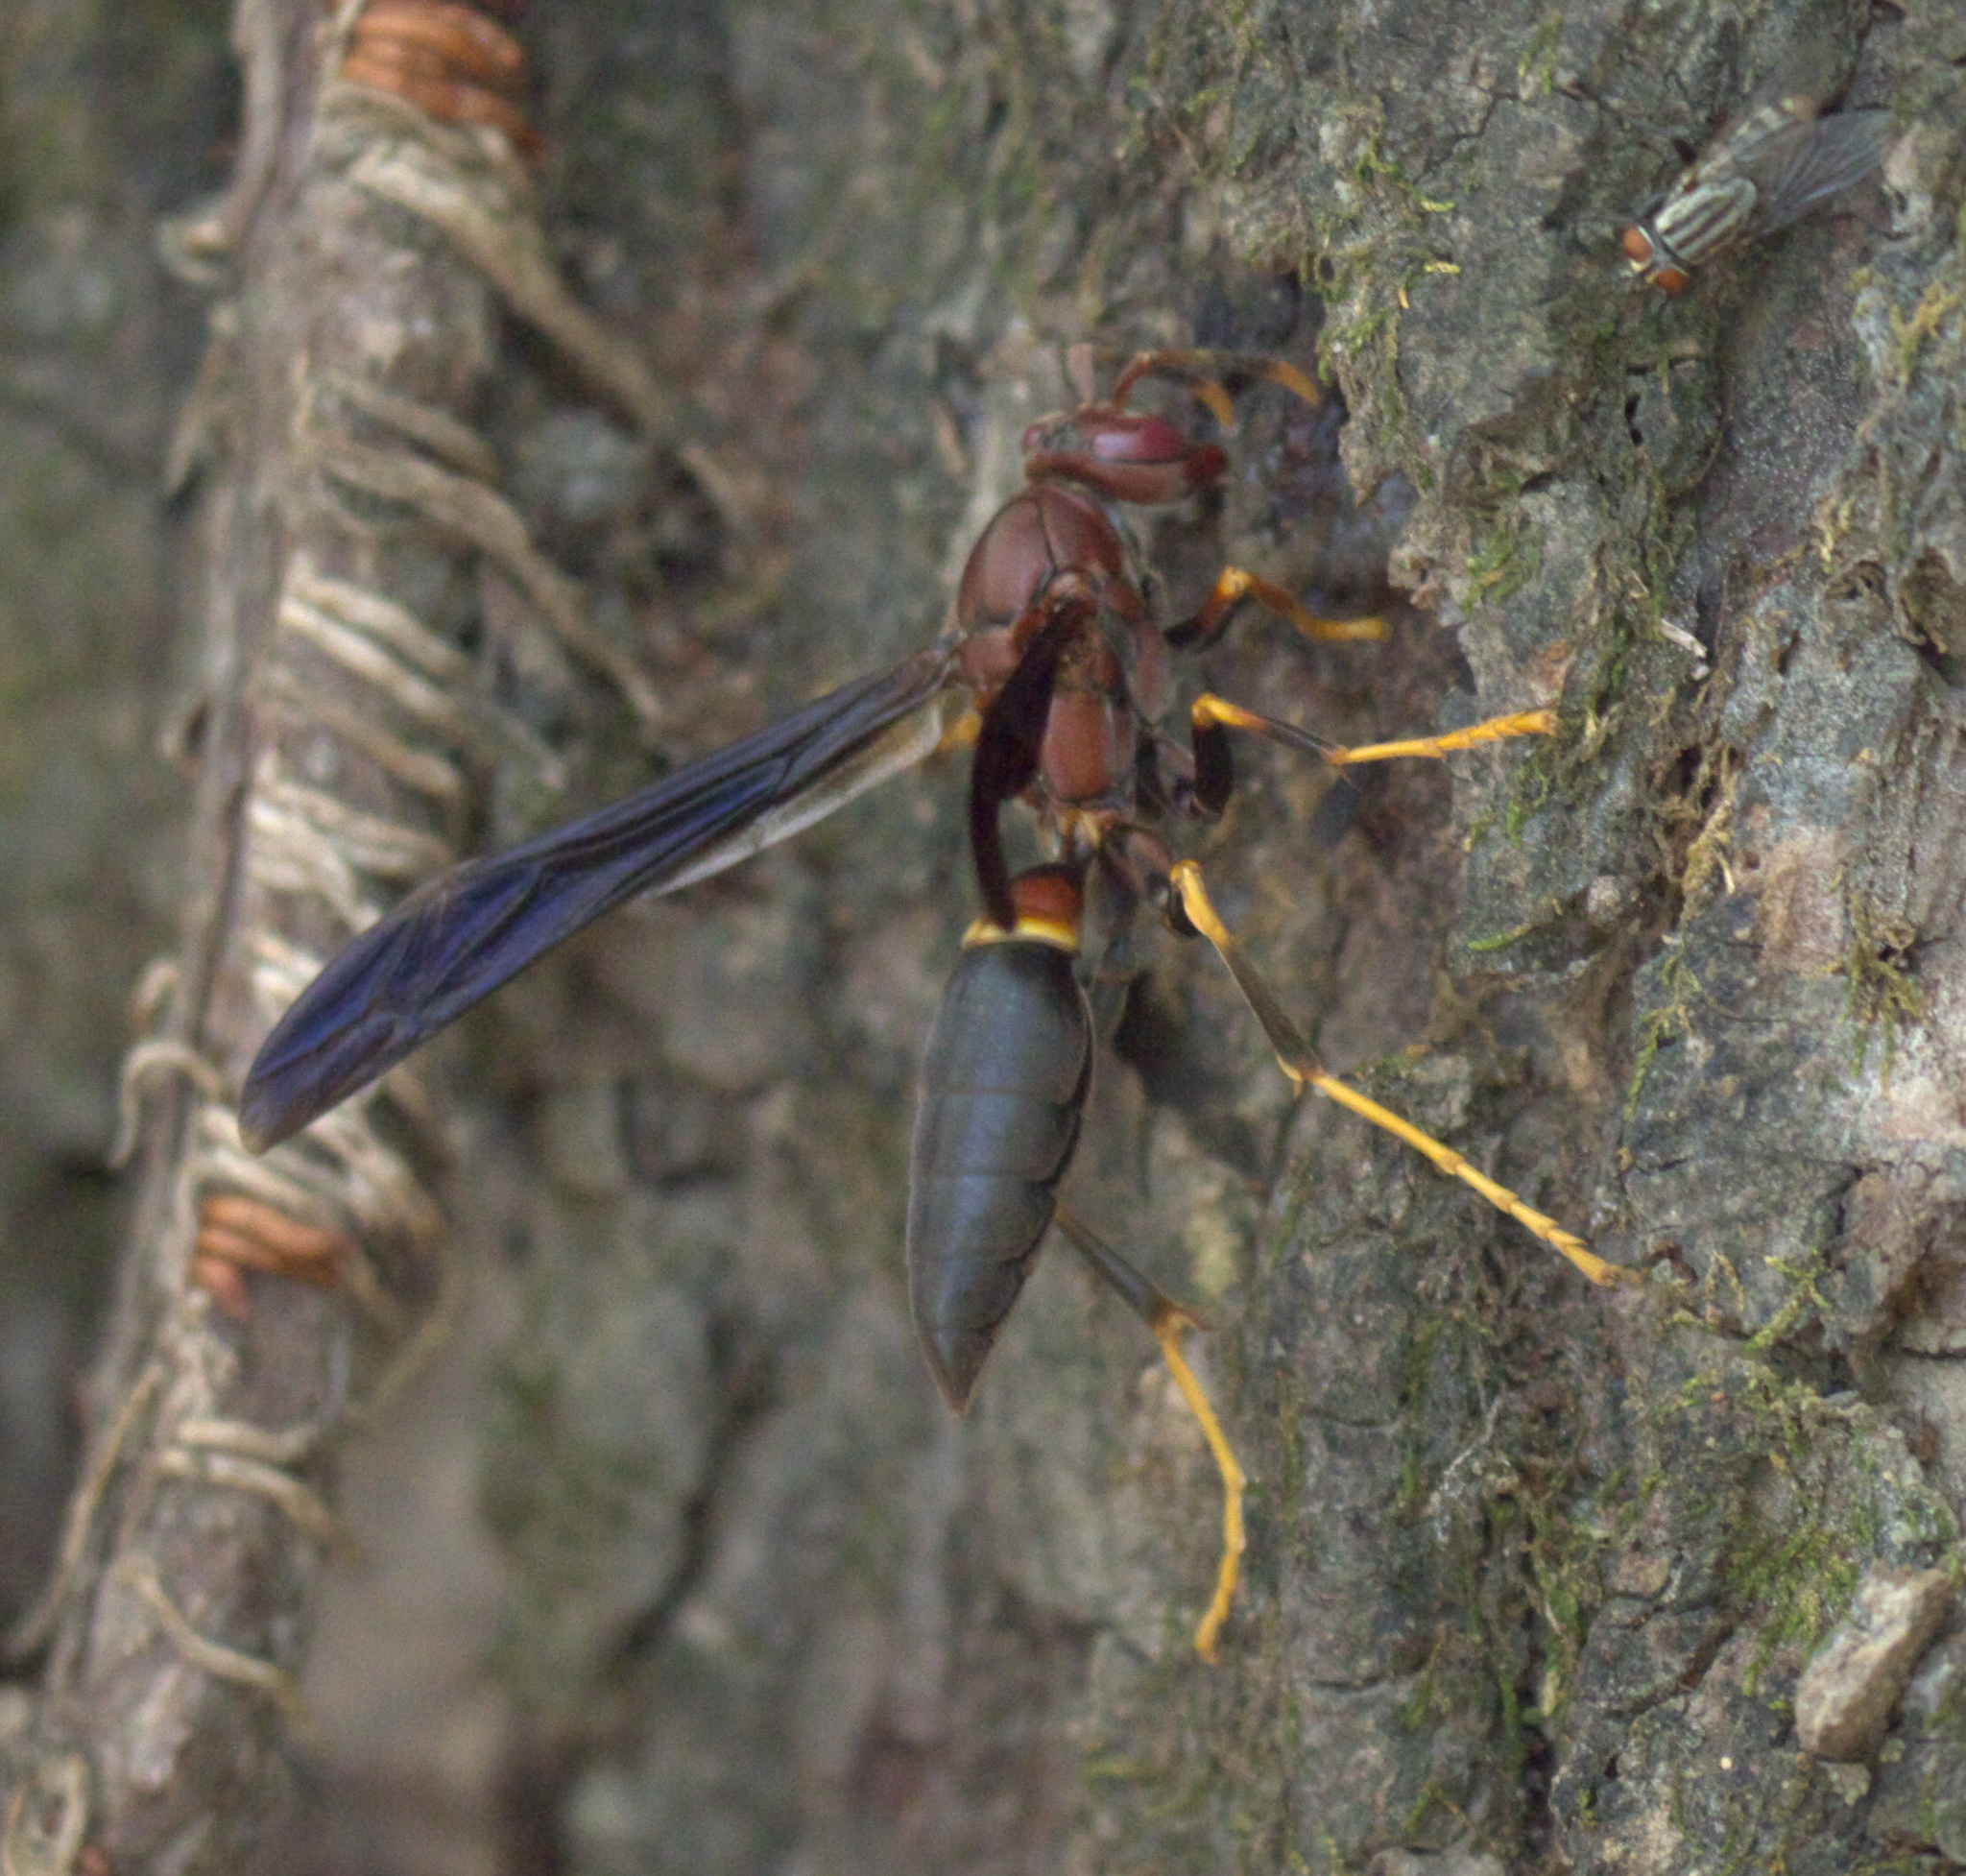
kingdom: Animalia
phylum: Arthropoda
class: Insecta
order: Hymenoptera
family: Eumenidae
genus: Polistes
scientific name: Polistes annularis
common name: Ringed paper wasp
